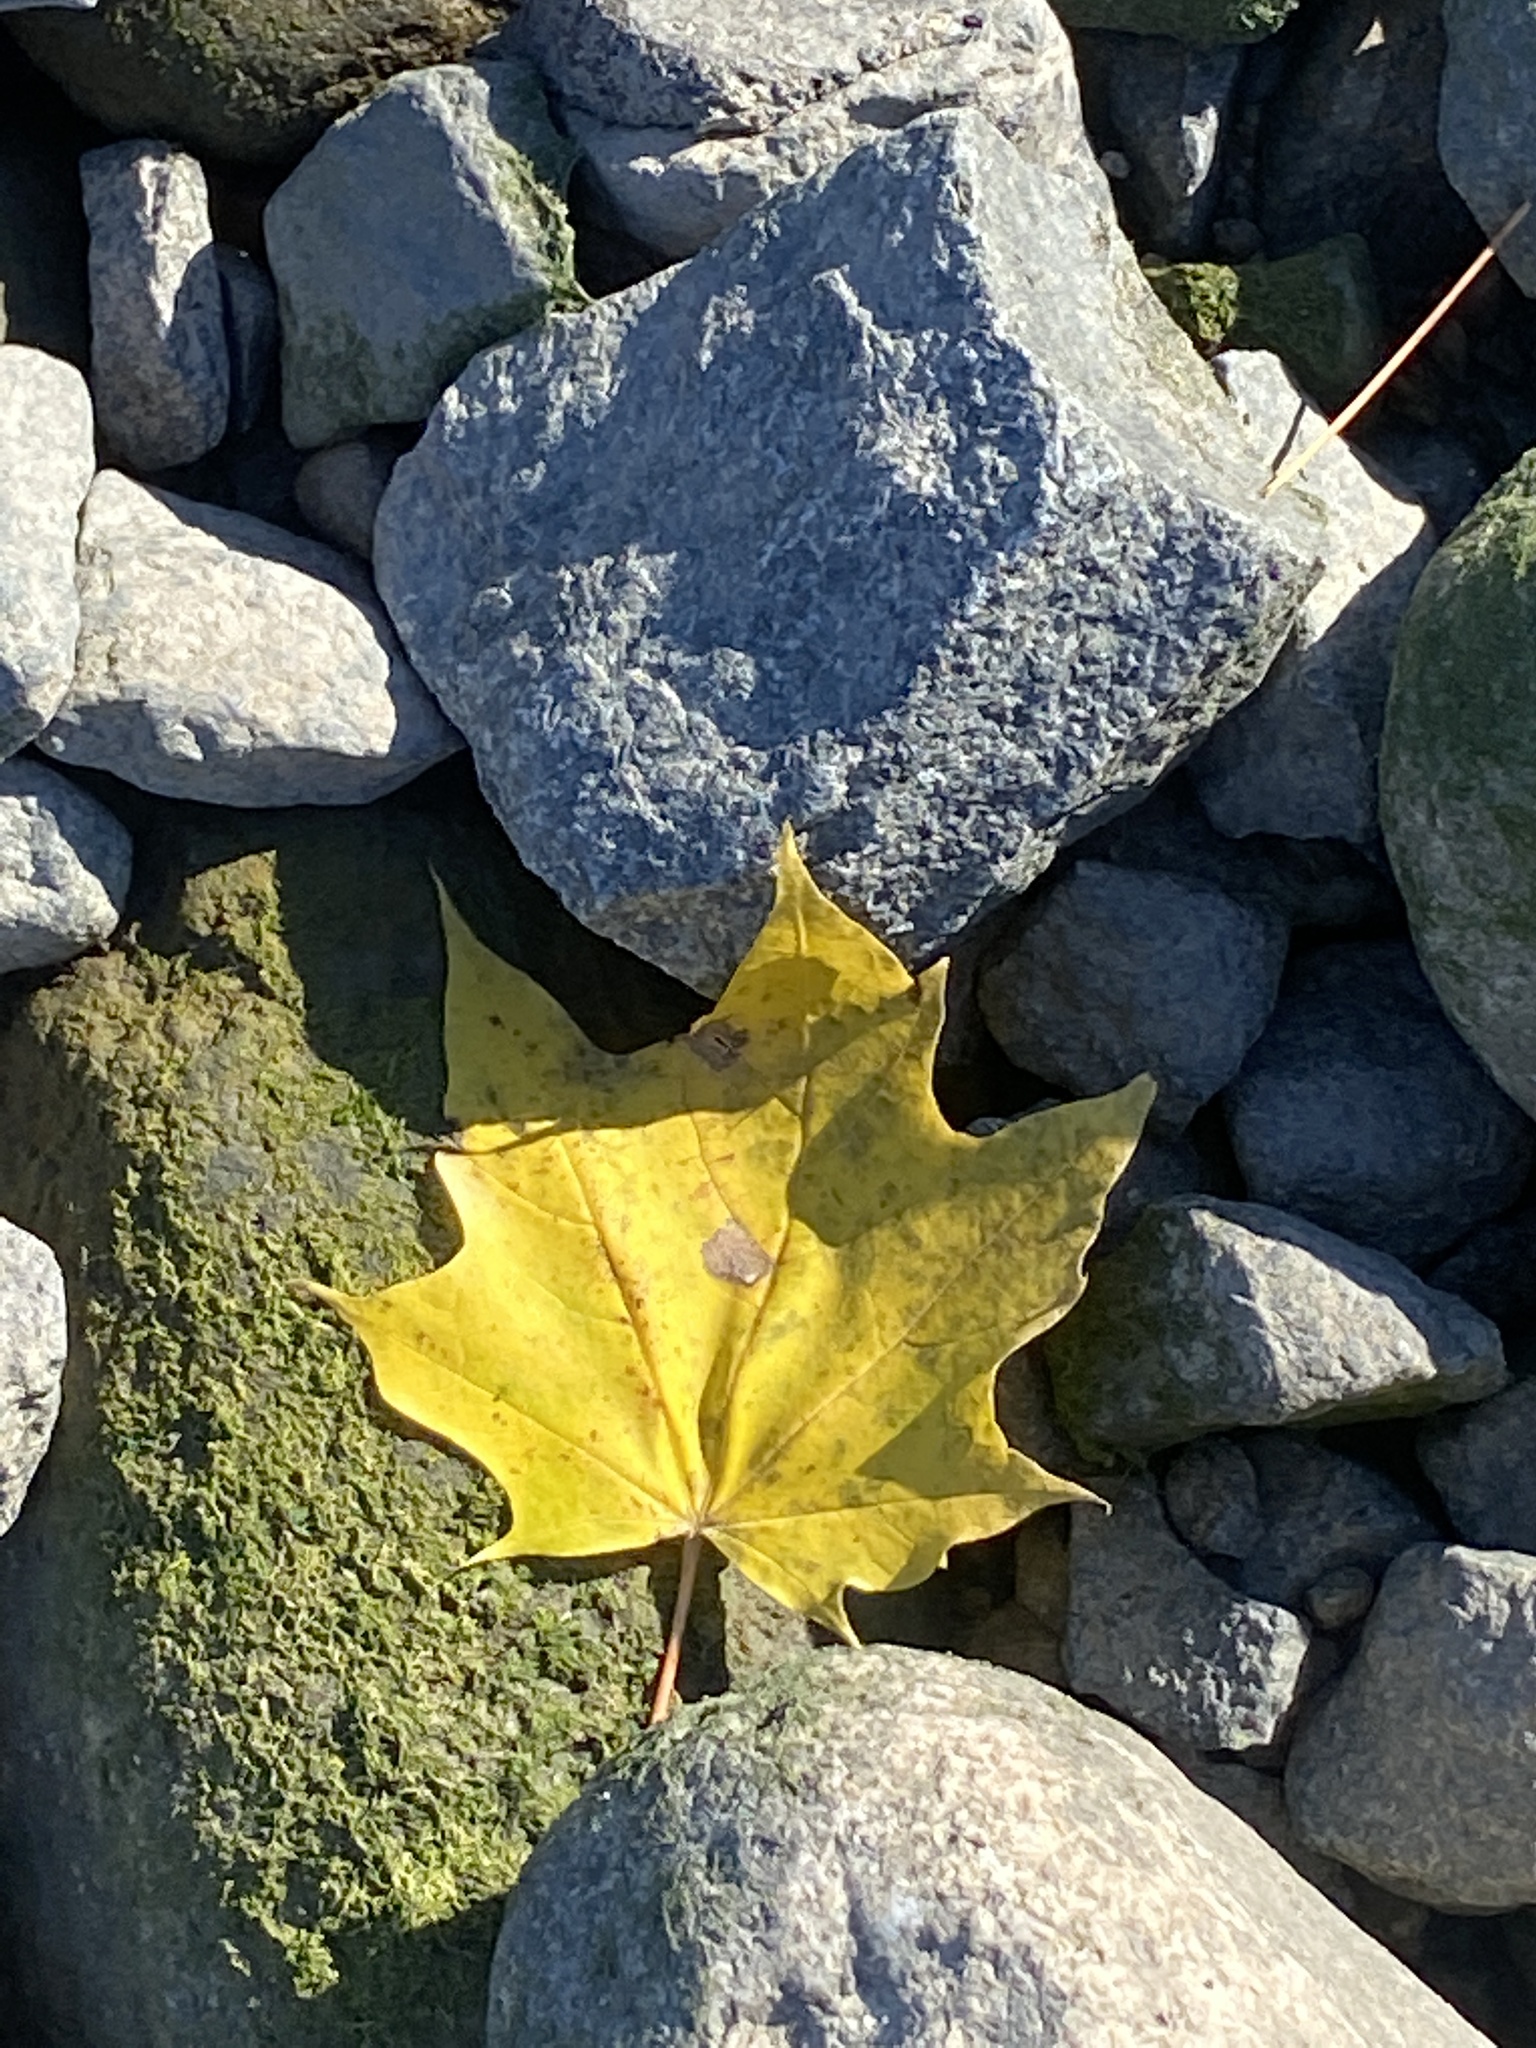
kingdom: Plantae
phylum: Tracheophyta
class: Magnoliopsida
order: Sapindales
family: Sapindaceae
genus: Acer
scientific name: Acer platanoides
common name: Norway maple
